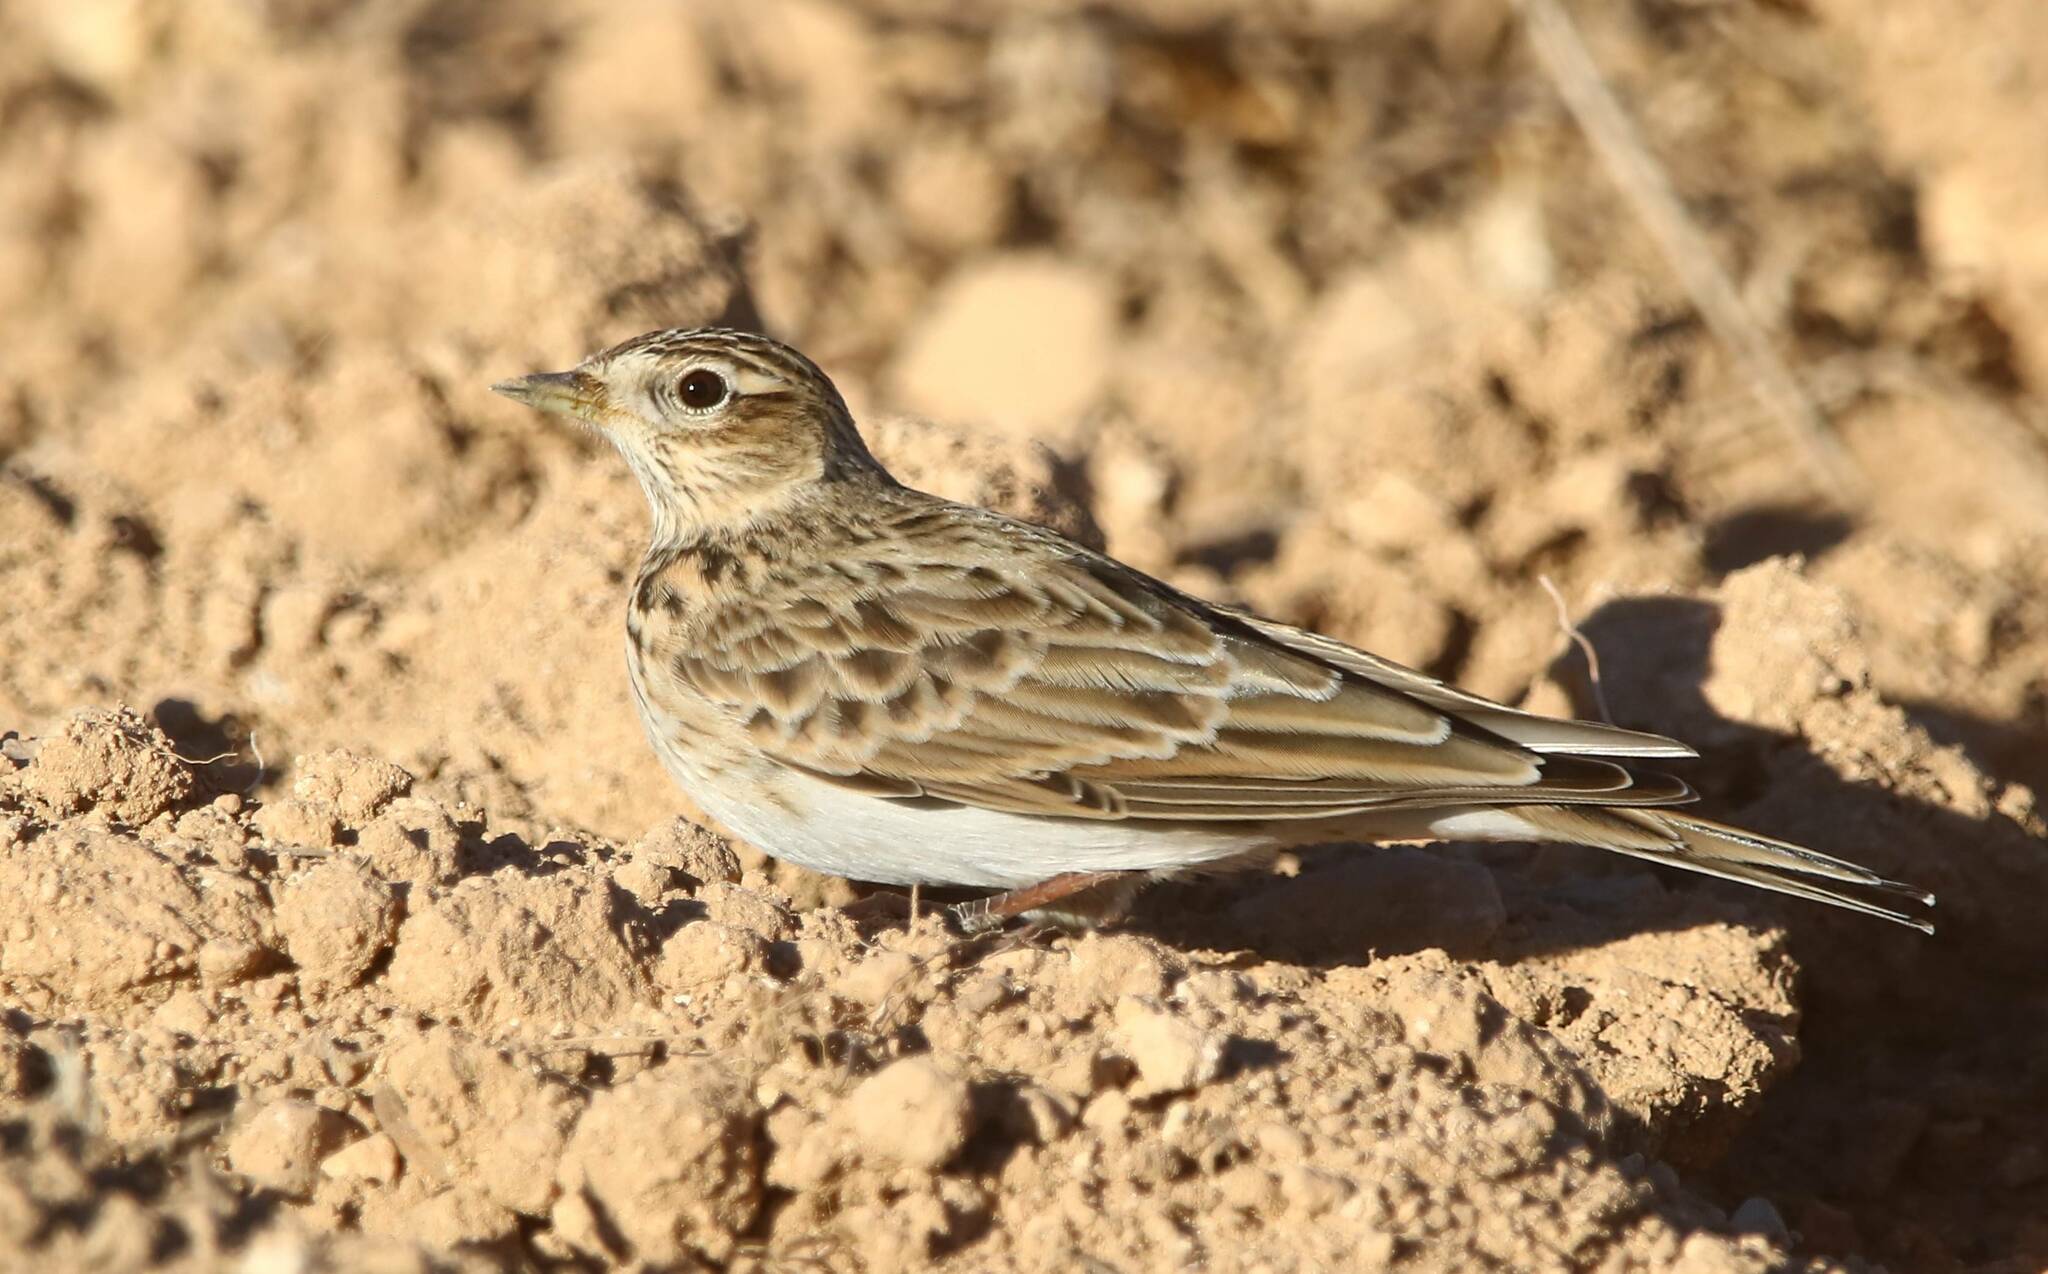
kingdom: Animalia
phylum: Chordata
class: Aves
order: Passeriformes
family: Alaudidae
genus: Alauda
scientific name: Alauda arvensis
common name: Eurasian skylark
